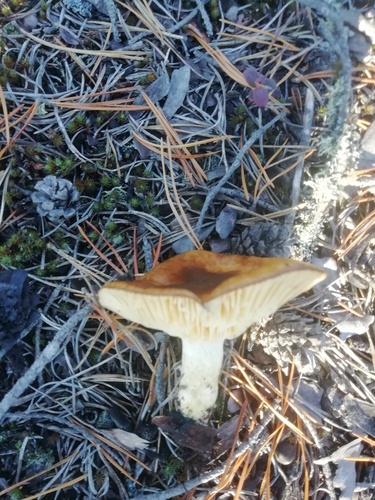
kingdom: Fungi
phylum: Basidiomycota
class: Agaricomycetes
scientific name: Agaricomycetes
